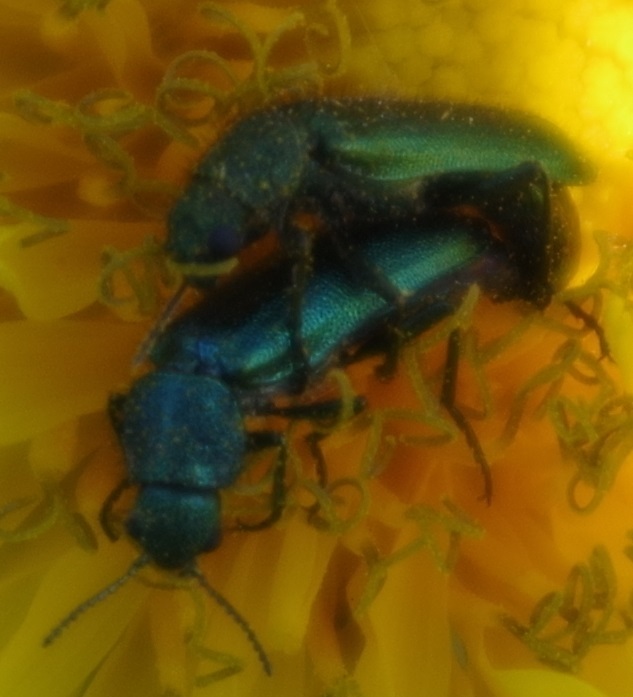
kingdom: Animalia
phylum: Arthropoda
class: Insecta
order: Coleoptera
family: Dasytidae
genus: Psilothrix
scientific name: Psilothrix viridicoerulea
